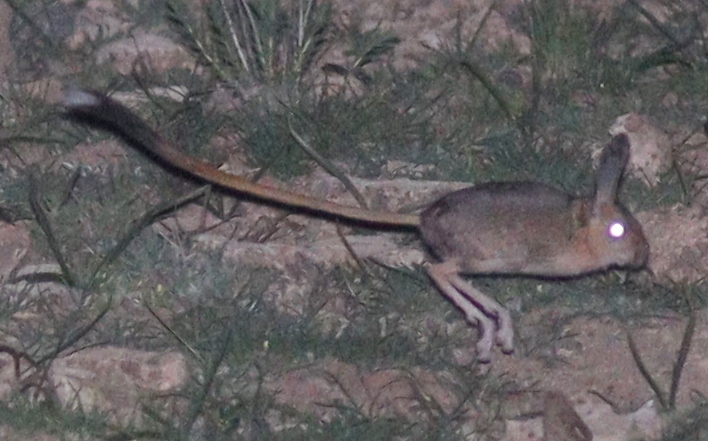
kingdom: Animalia
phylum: Chordata
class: Mammalia
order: Rodentia
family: Dipodidae
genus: Allactaga
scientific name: Allactaga williamsi
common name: Williams s jerboa
